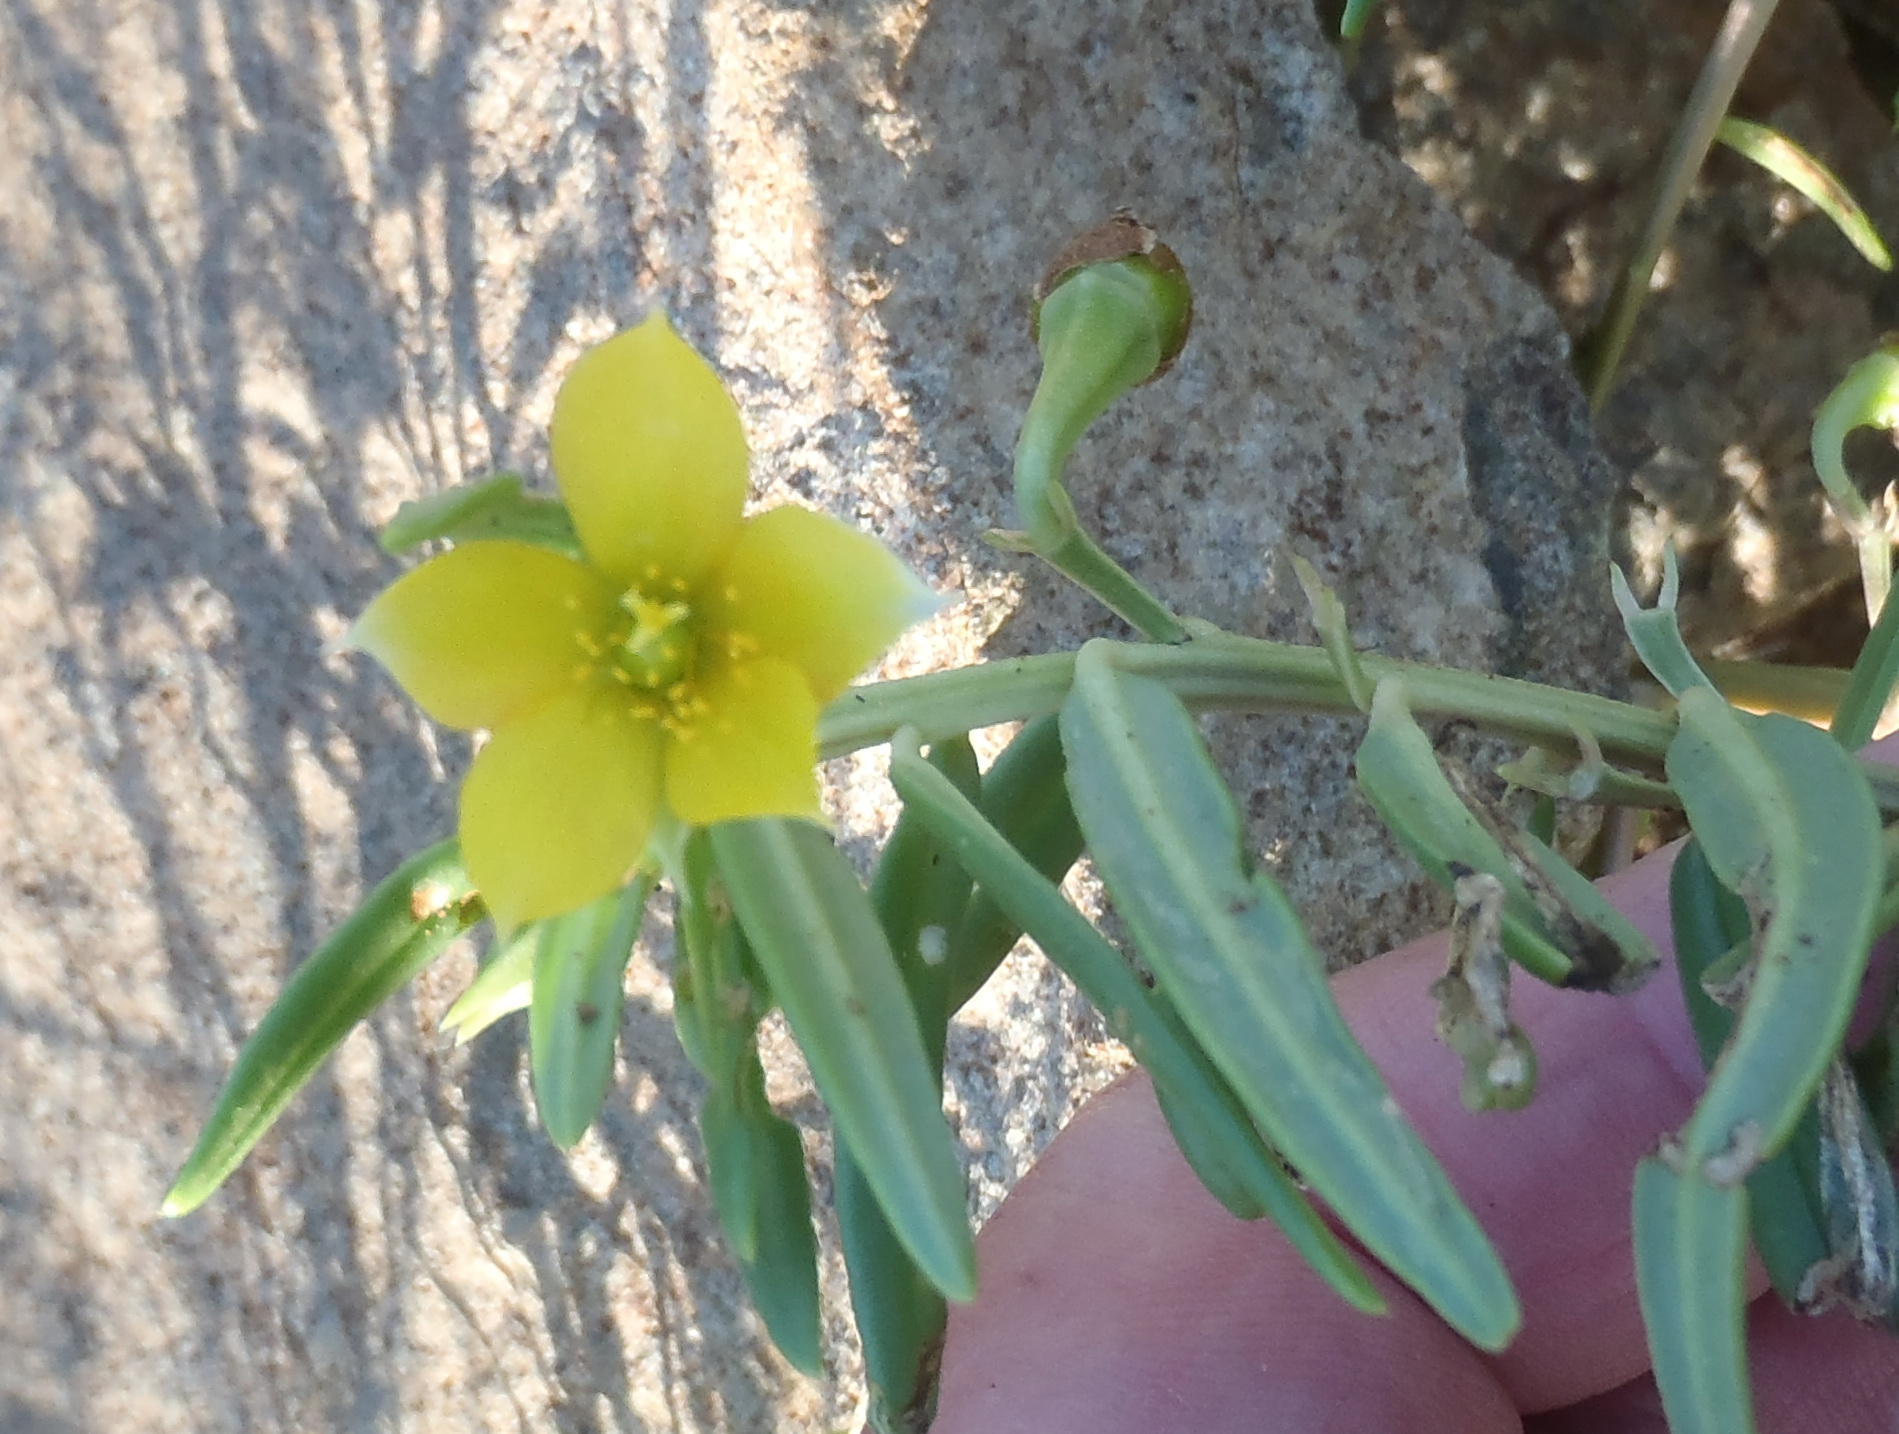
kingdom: Plantae
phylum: Tracheophyta
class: Magnoliopsida
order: Caryophyllales
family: Talinaceae
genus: Talinum
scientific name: Talinum caffrum
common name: Flameflower
